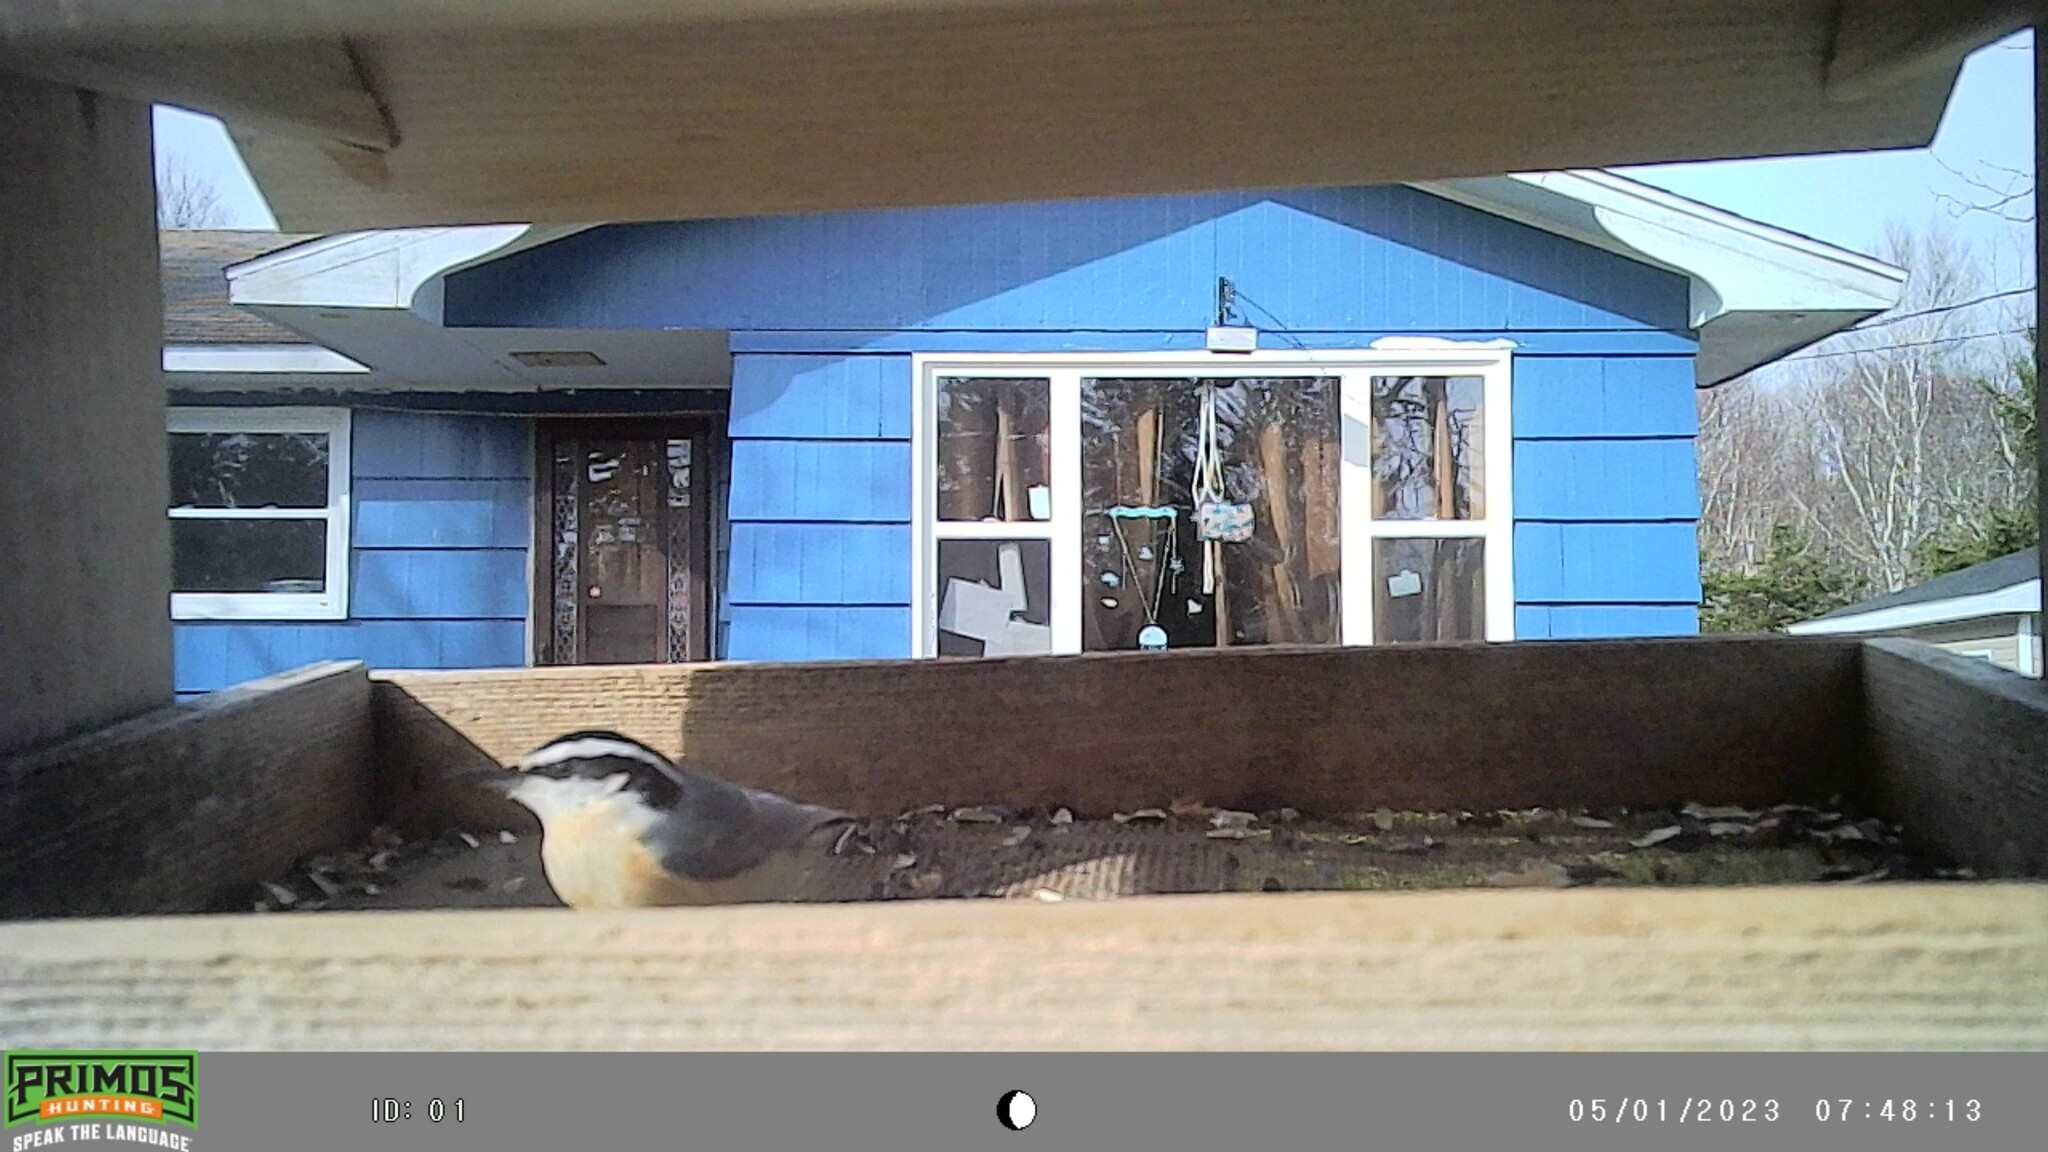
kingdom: Animalia
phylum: Chordata
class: Aves
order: Passeriformes
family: Sittidae
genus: Sitta
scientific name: Sitta canadensis
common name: Red-breasted nuthatch
